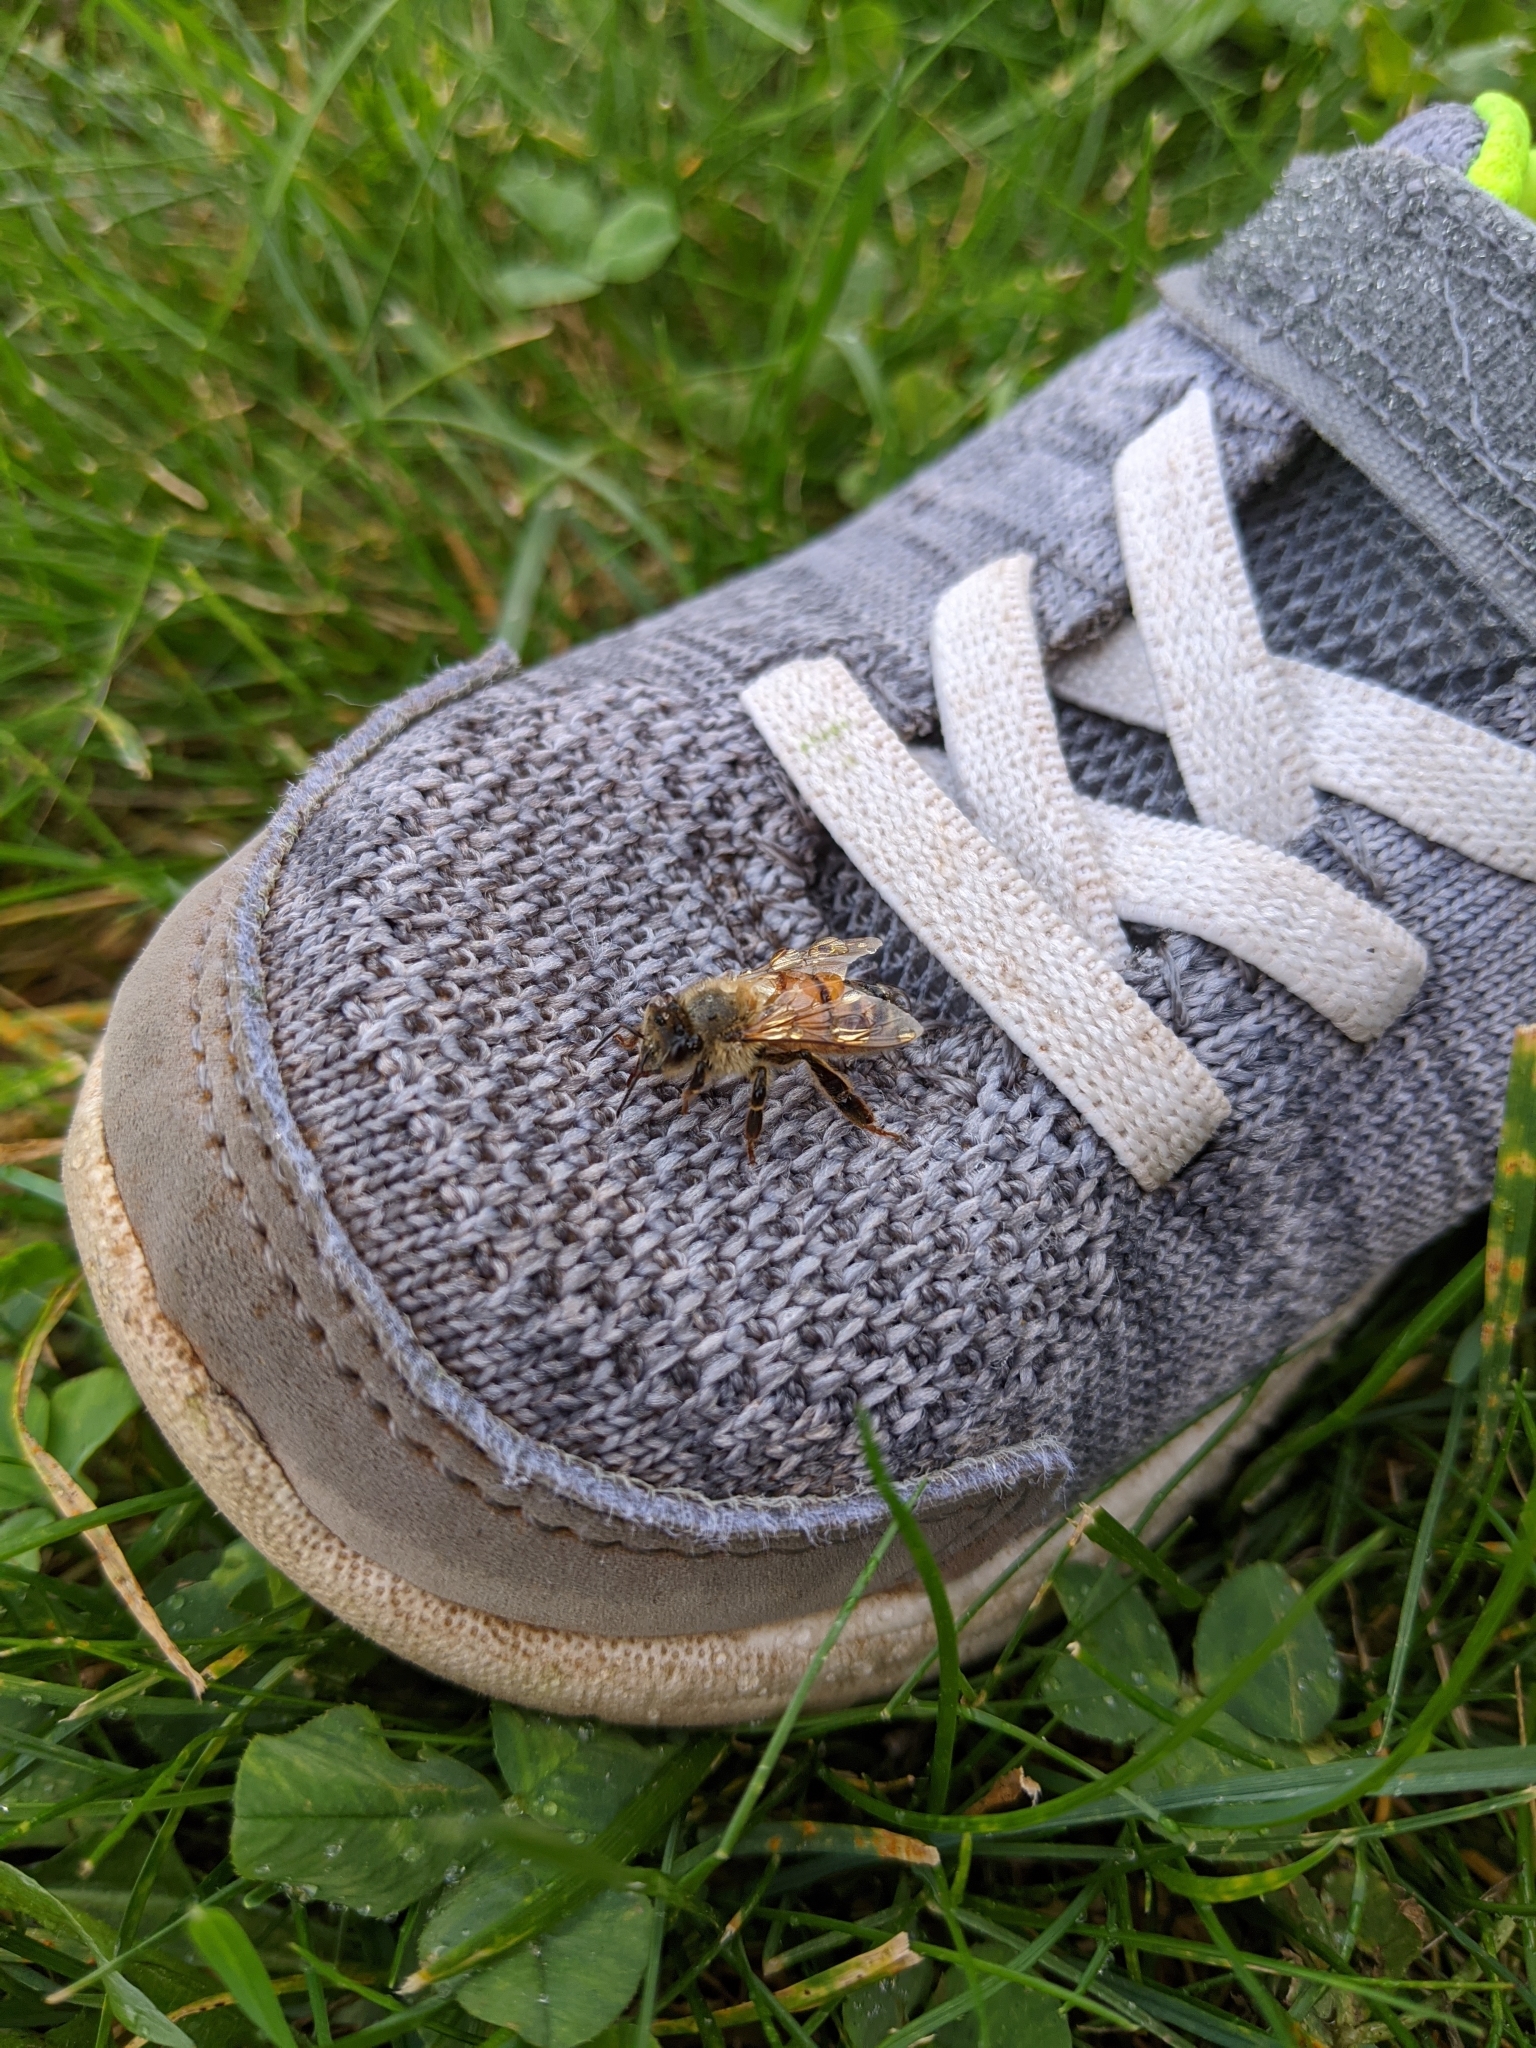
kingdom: Animalia
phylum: Arthropoda
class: Insecta
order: Hymenoptera
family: Apidae
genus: Apis
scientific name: Apis mellifera
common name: Honey bee
